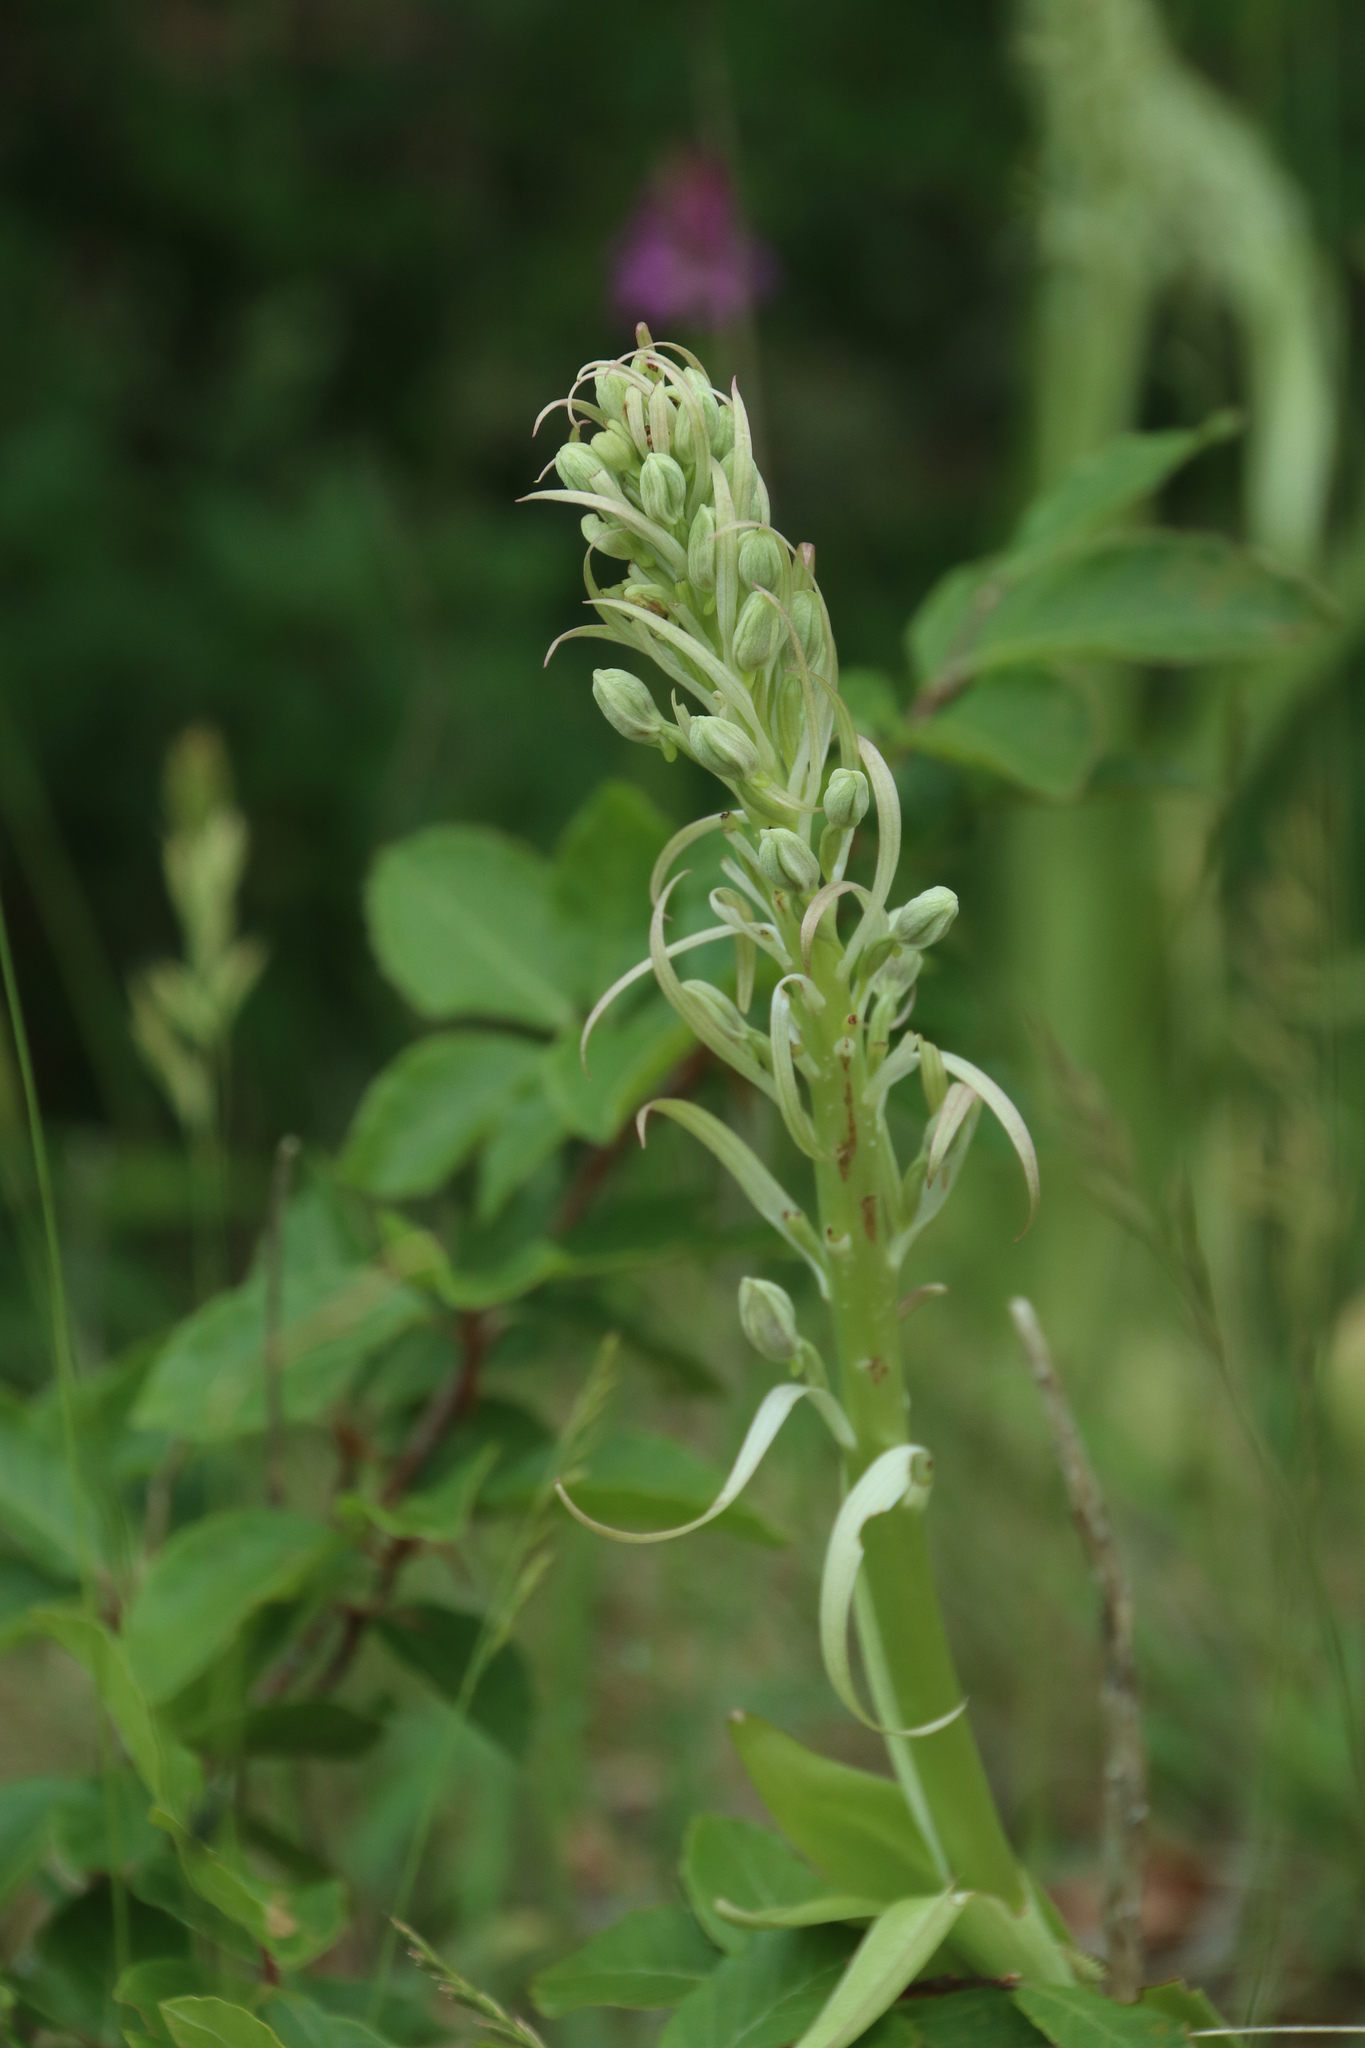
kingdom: Plantae
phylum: Tracheophyta
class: Liliopsida
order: Asparagales
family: Orchidaceae
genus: Himantoglossum
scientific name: Himantoglossum hircinum
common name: Lizard orchid
